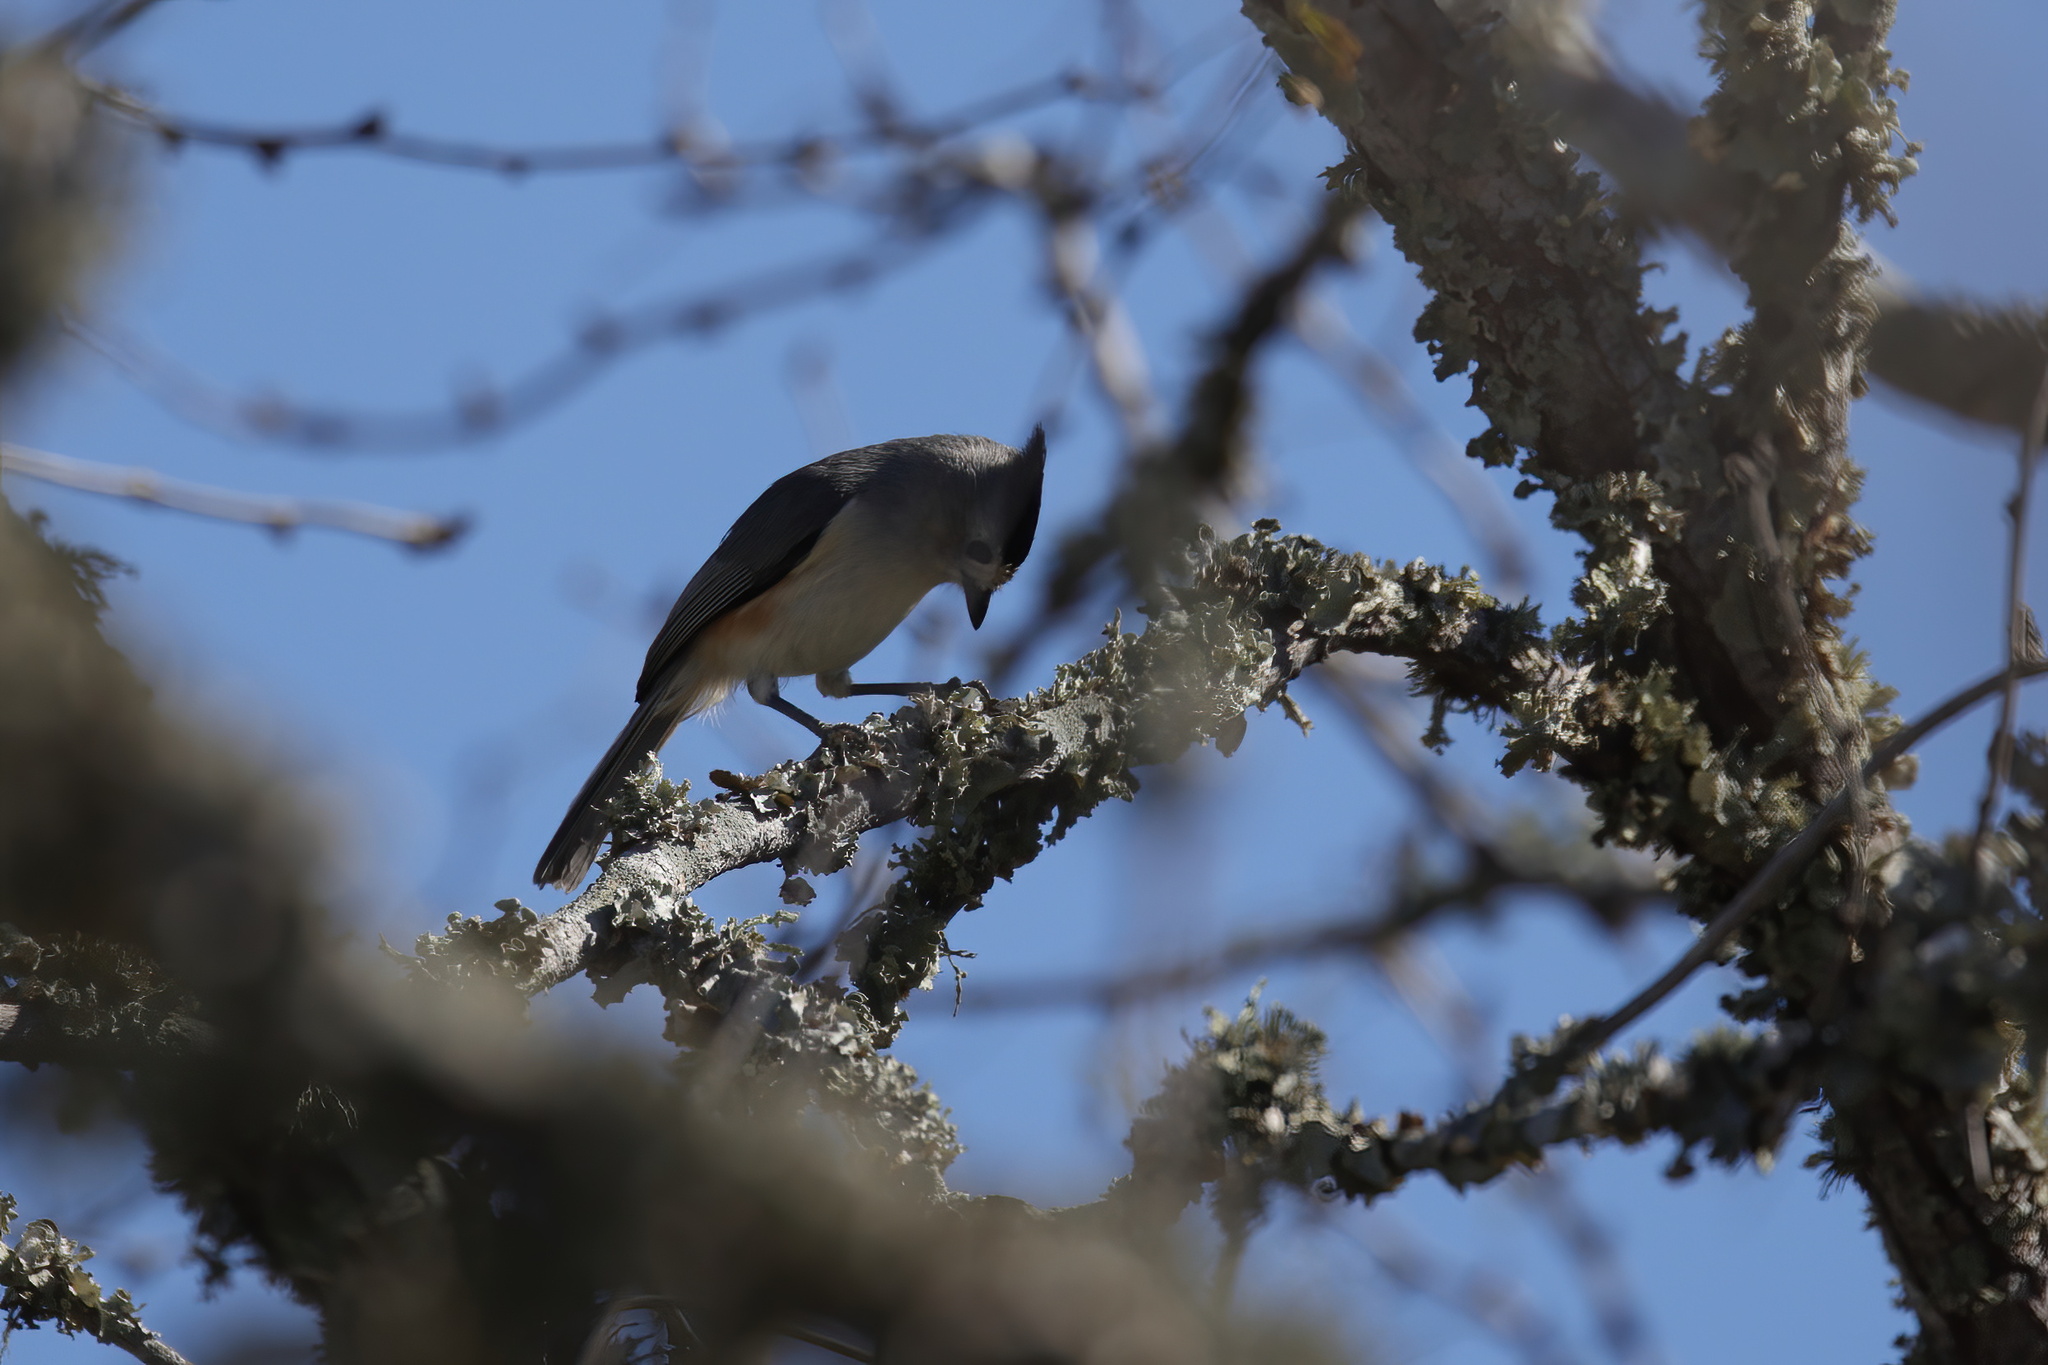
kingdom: Animalia
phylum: Chordata
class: Aves
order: Passeriformes
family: Paridae
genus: Baeolophus
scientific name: Baeolophus atricristatus
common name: Black-crested titmouse
